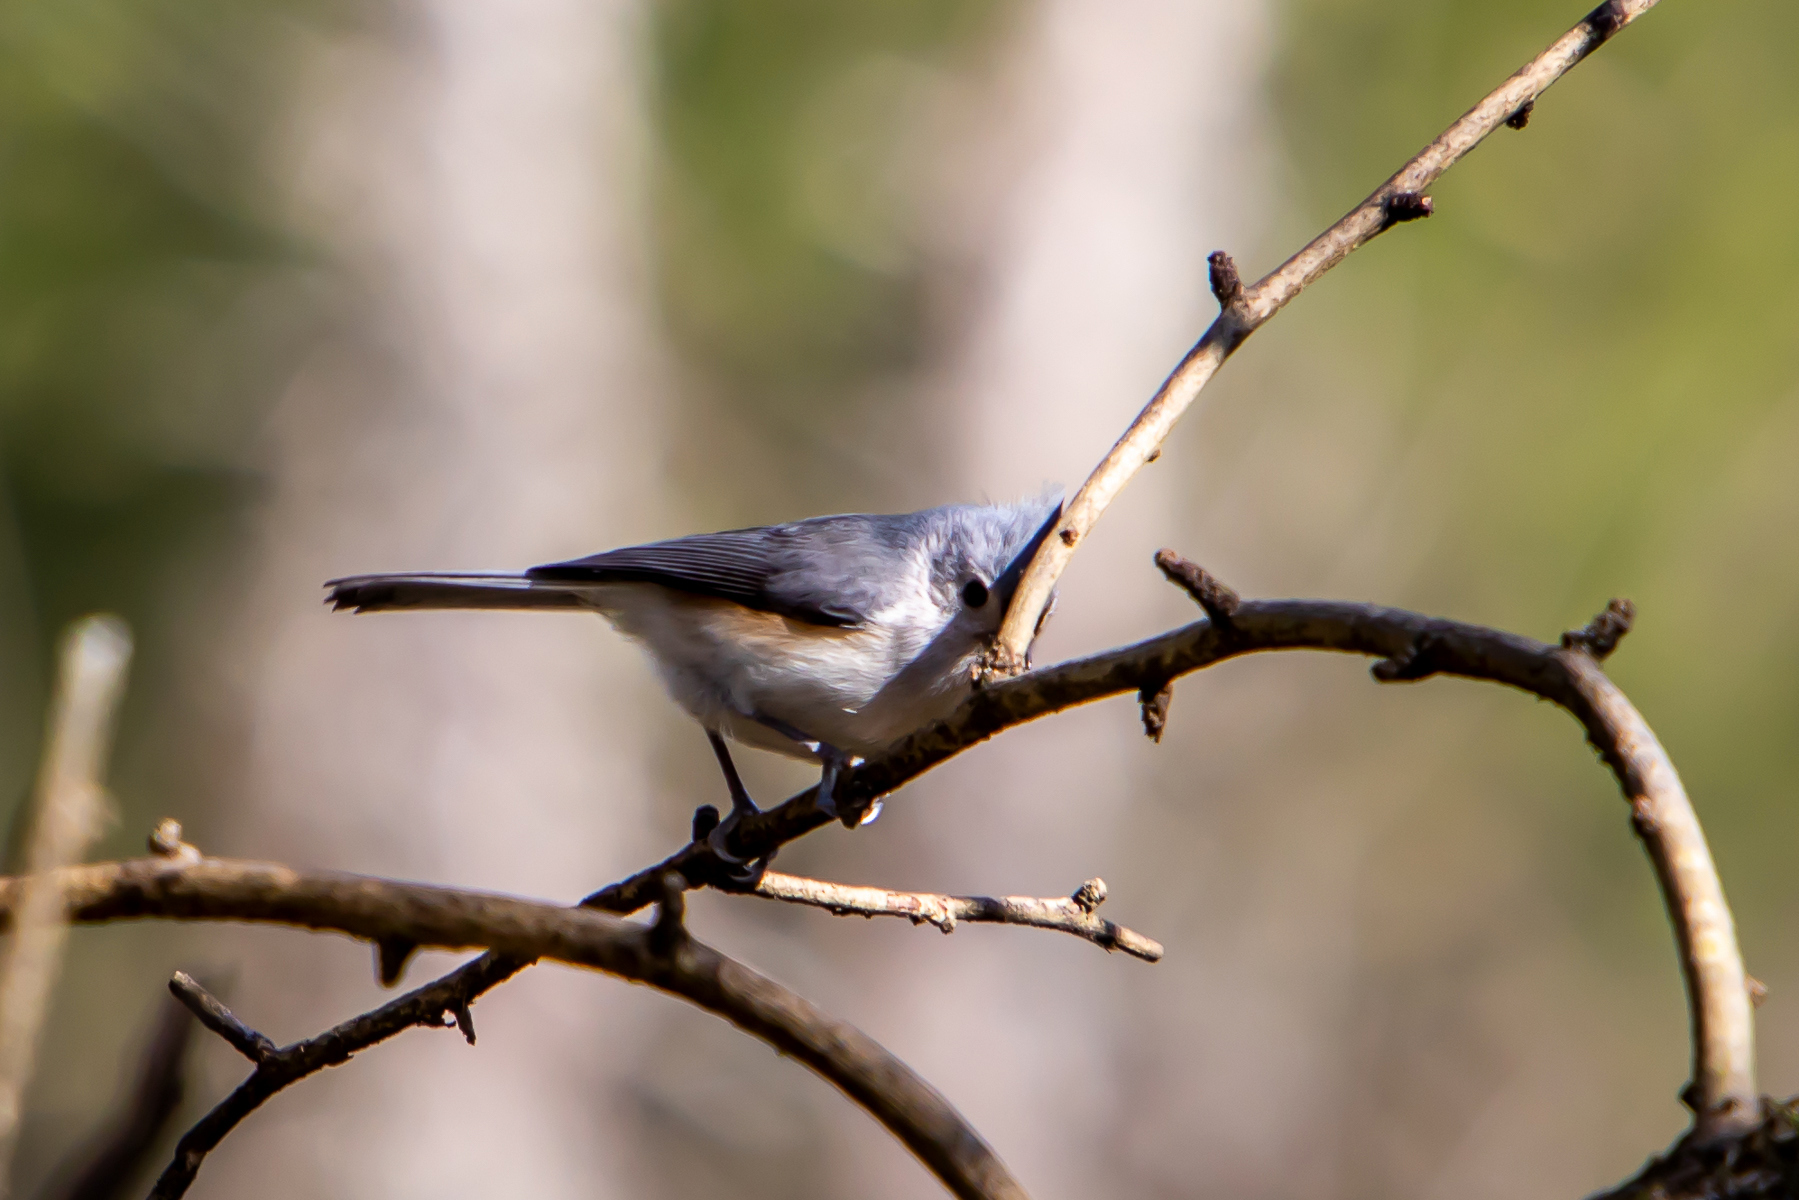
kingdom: Animalia
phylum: Chordata
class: Aves
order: Passeriformes
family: Paridae
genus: Baeolophus
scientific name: Baeolophus bicolor
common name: Tufted titmouse
